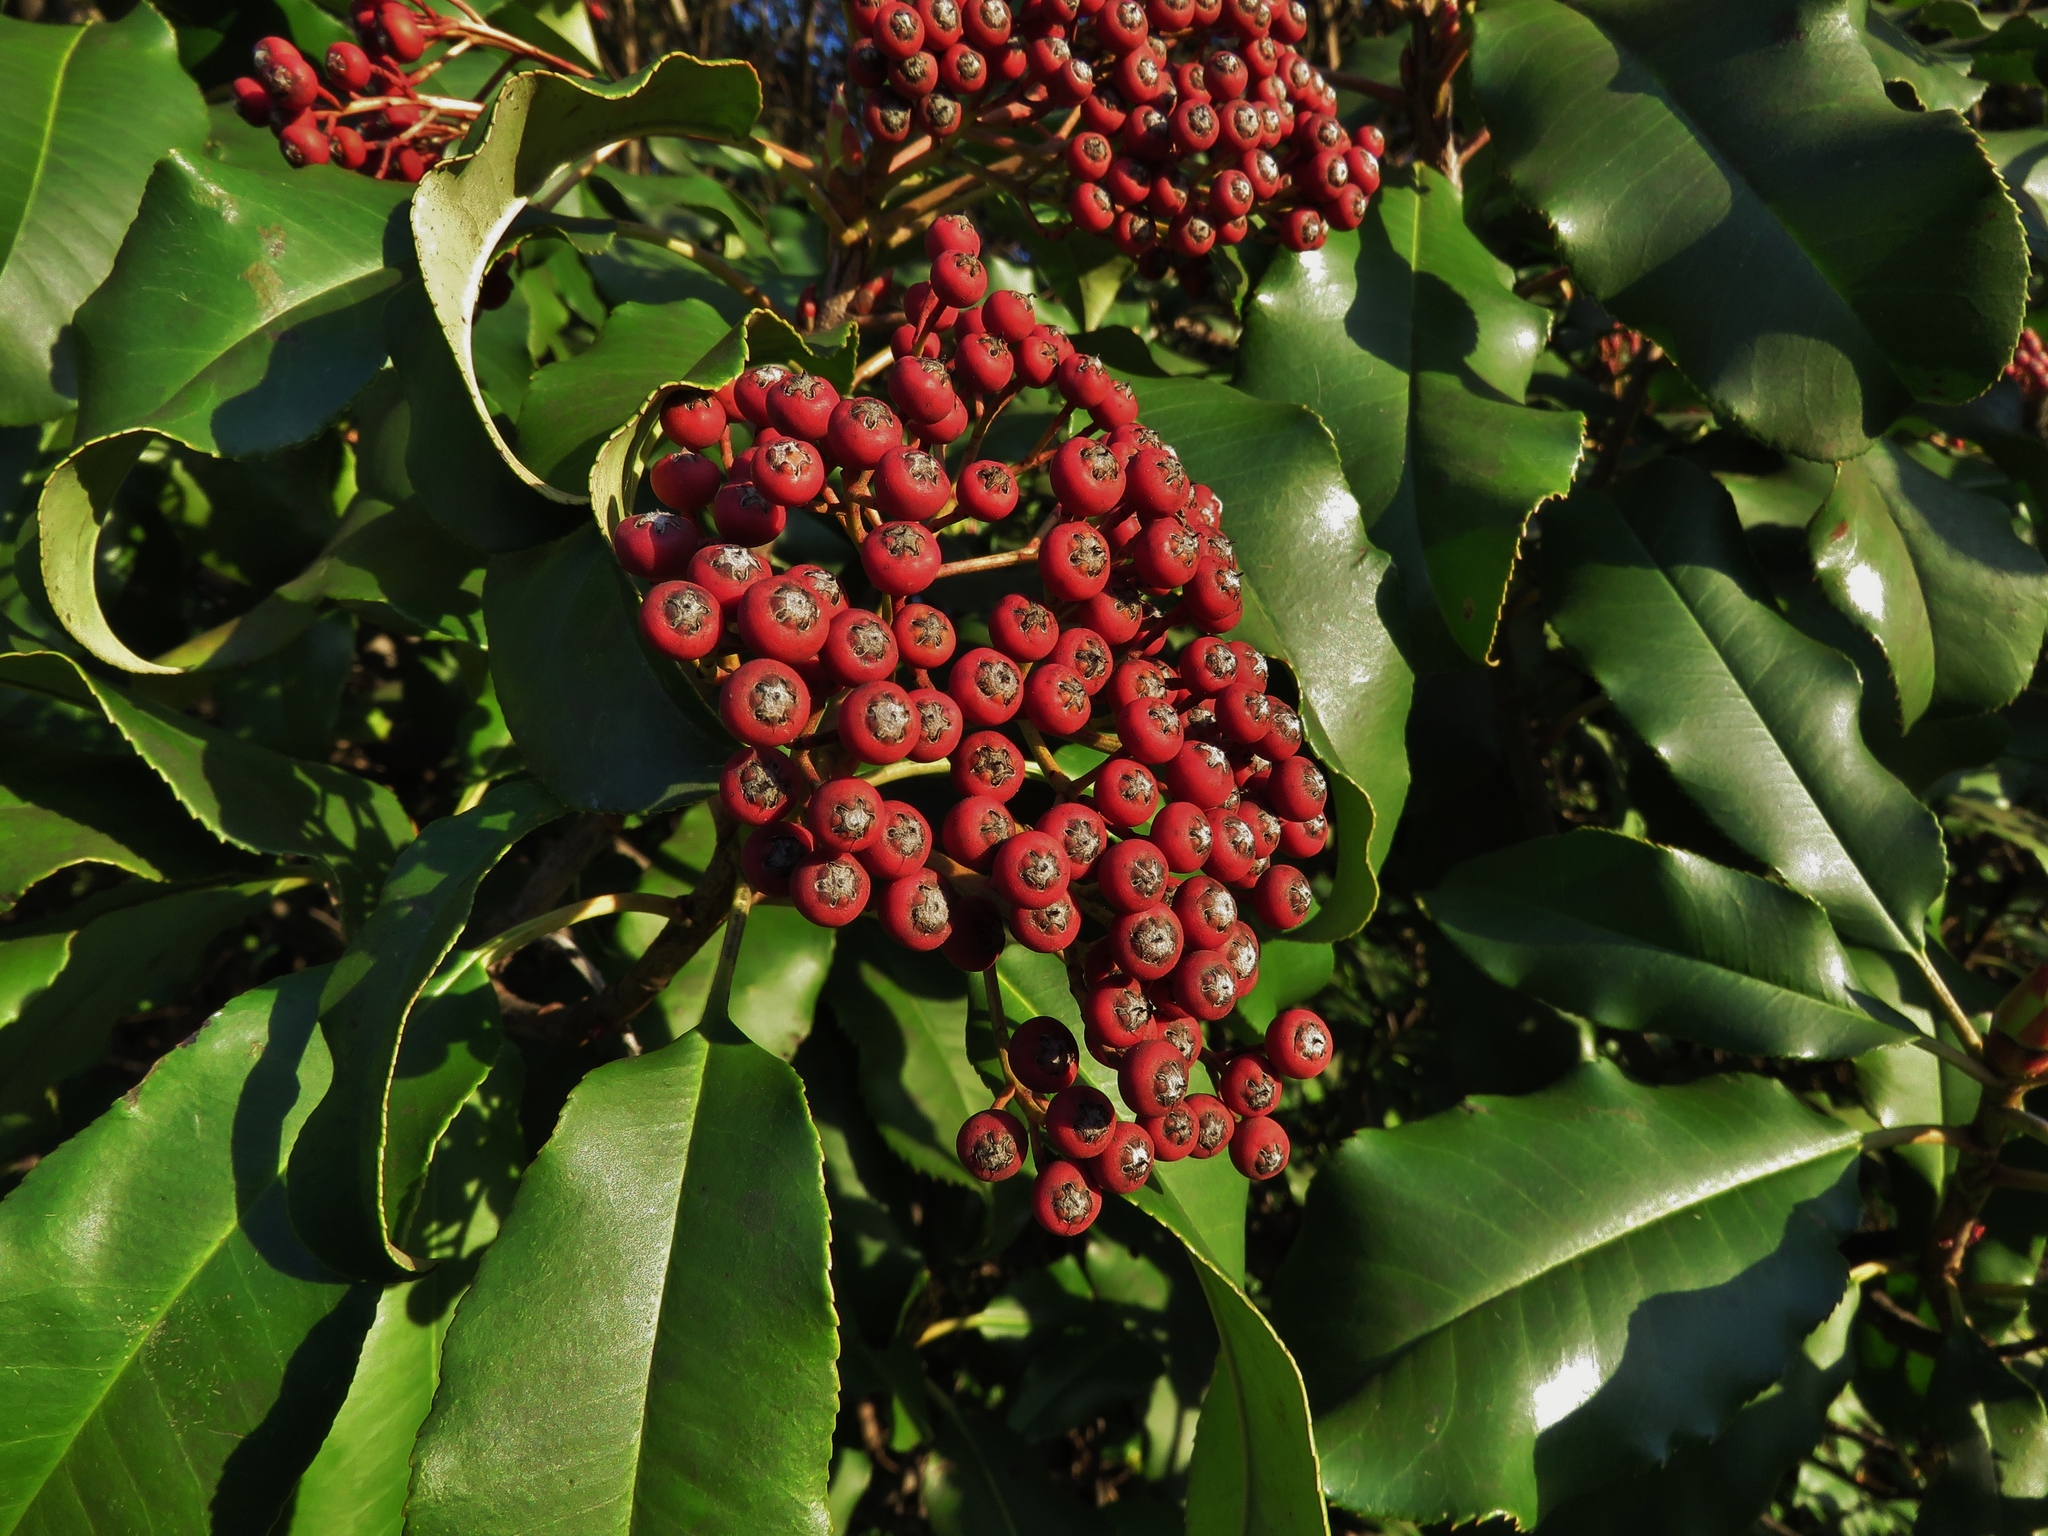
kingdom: Plantae
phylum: Tracheophyta
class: Magnoliopsida
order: Rosales
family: Rosaceae
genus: Photinia
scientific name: Photinia serratifolia
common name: Taiwanese photinia
